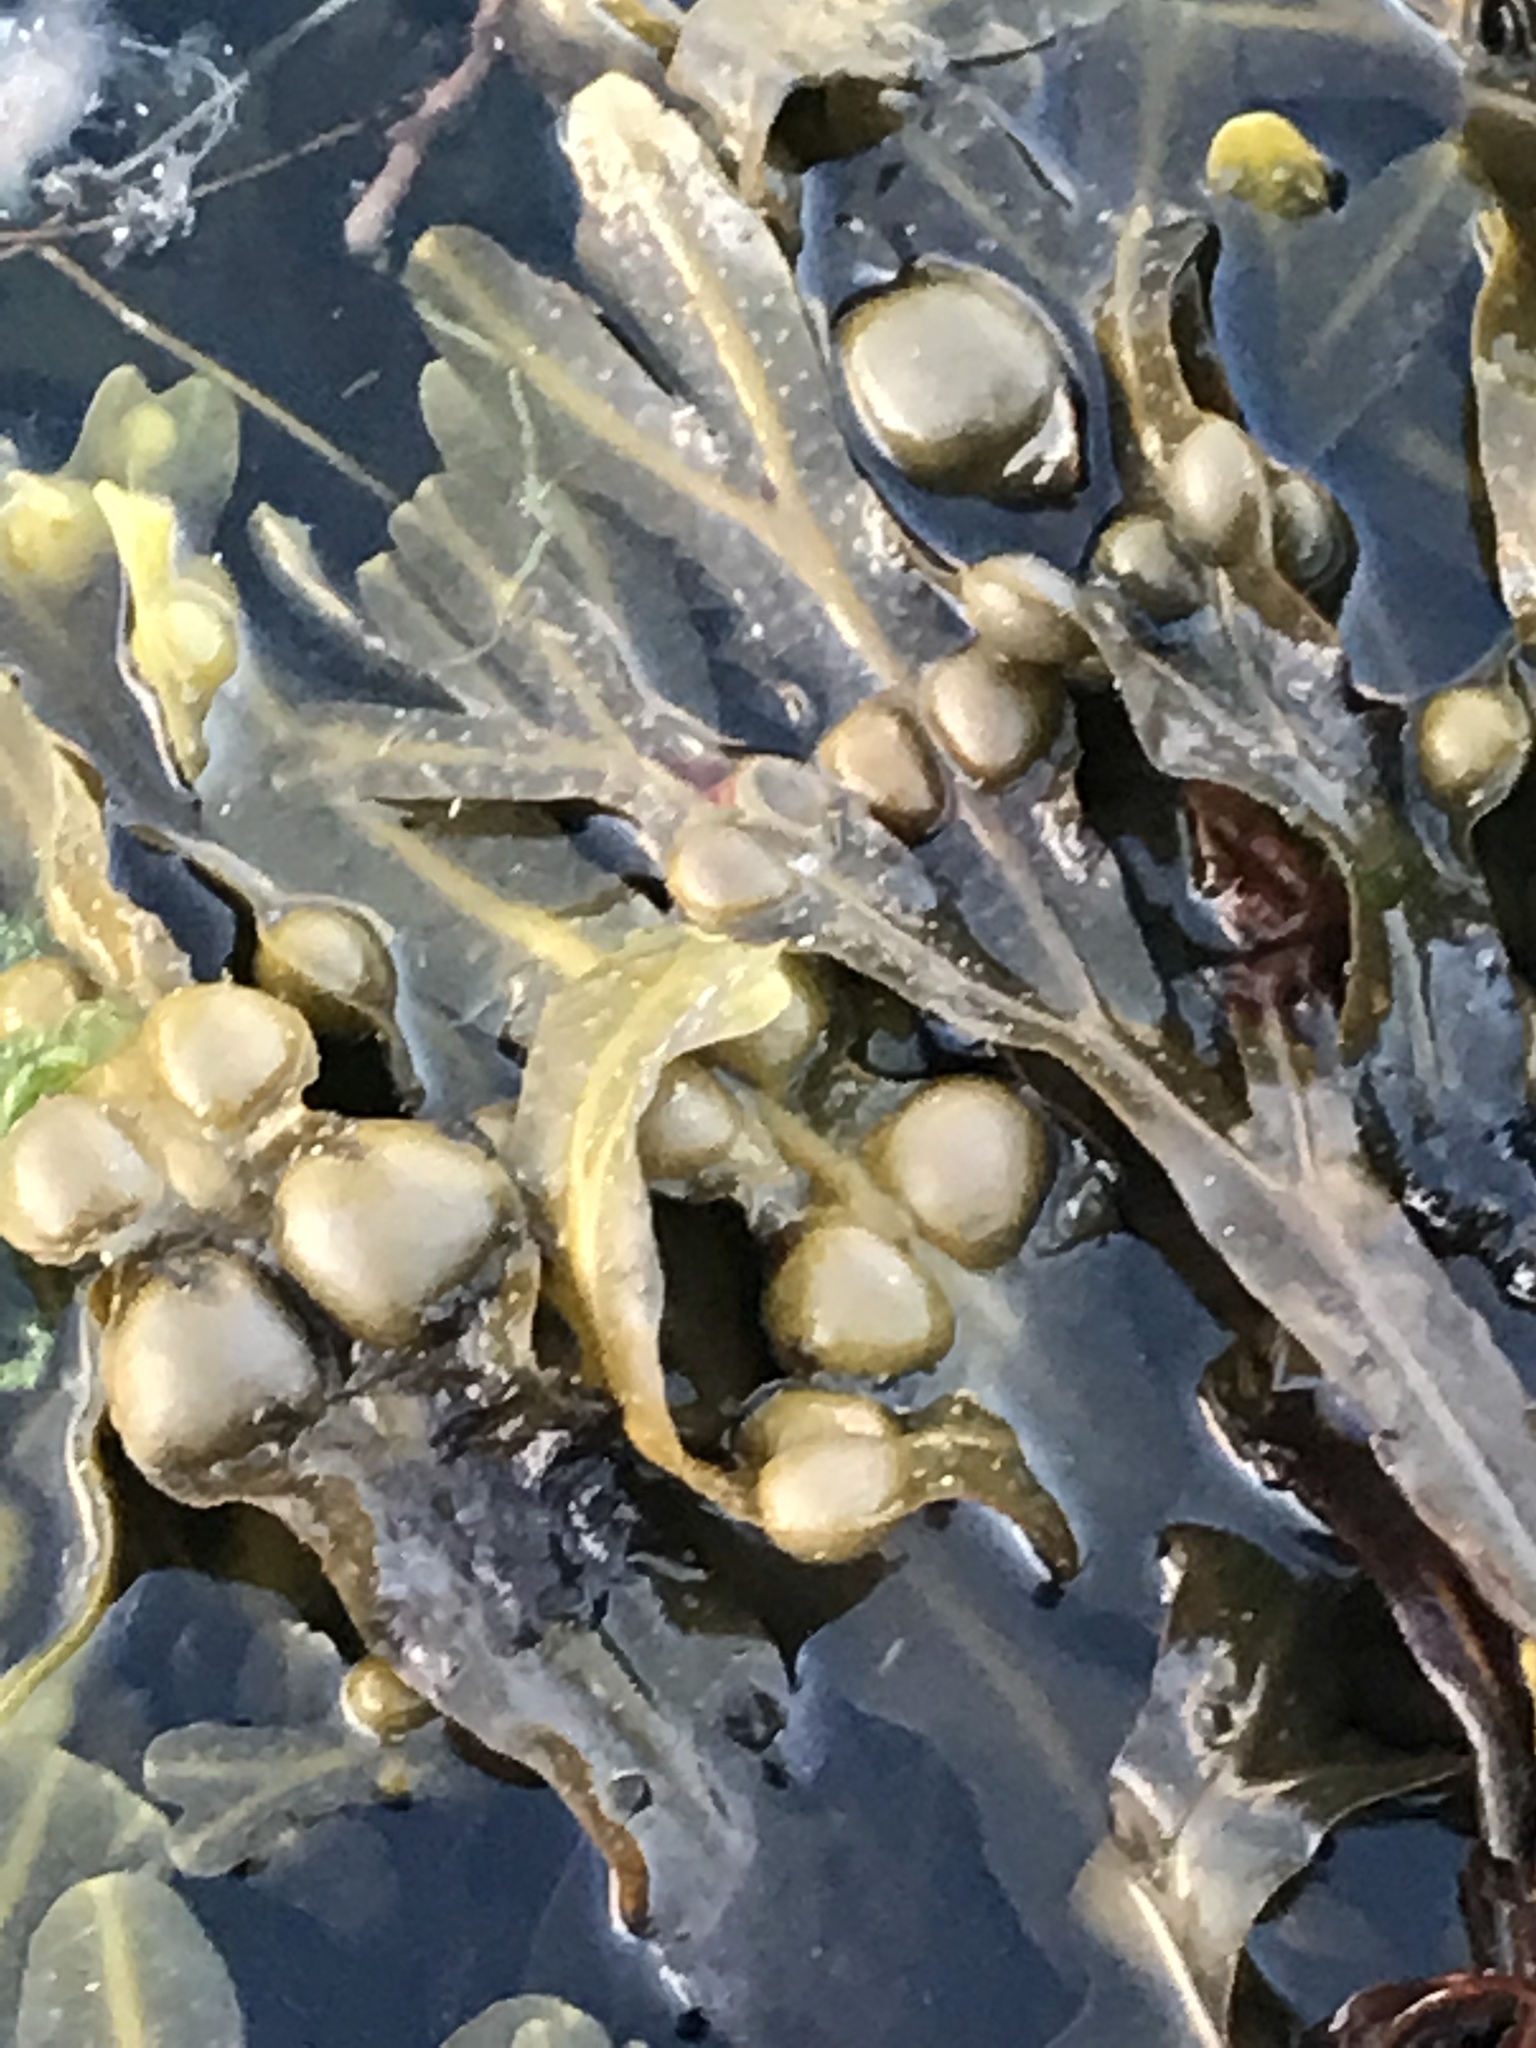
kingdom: Chromista
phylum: Ochrophyta
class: Phaeophyceae
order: Fucales
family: Fucaceae
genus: Fucus
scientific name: Fucus vesiculosus
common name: Bladder wrack
